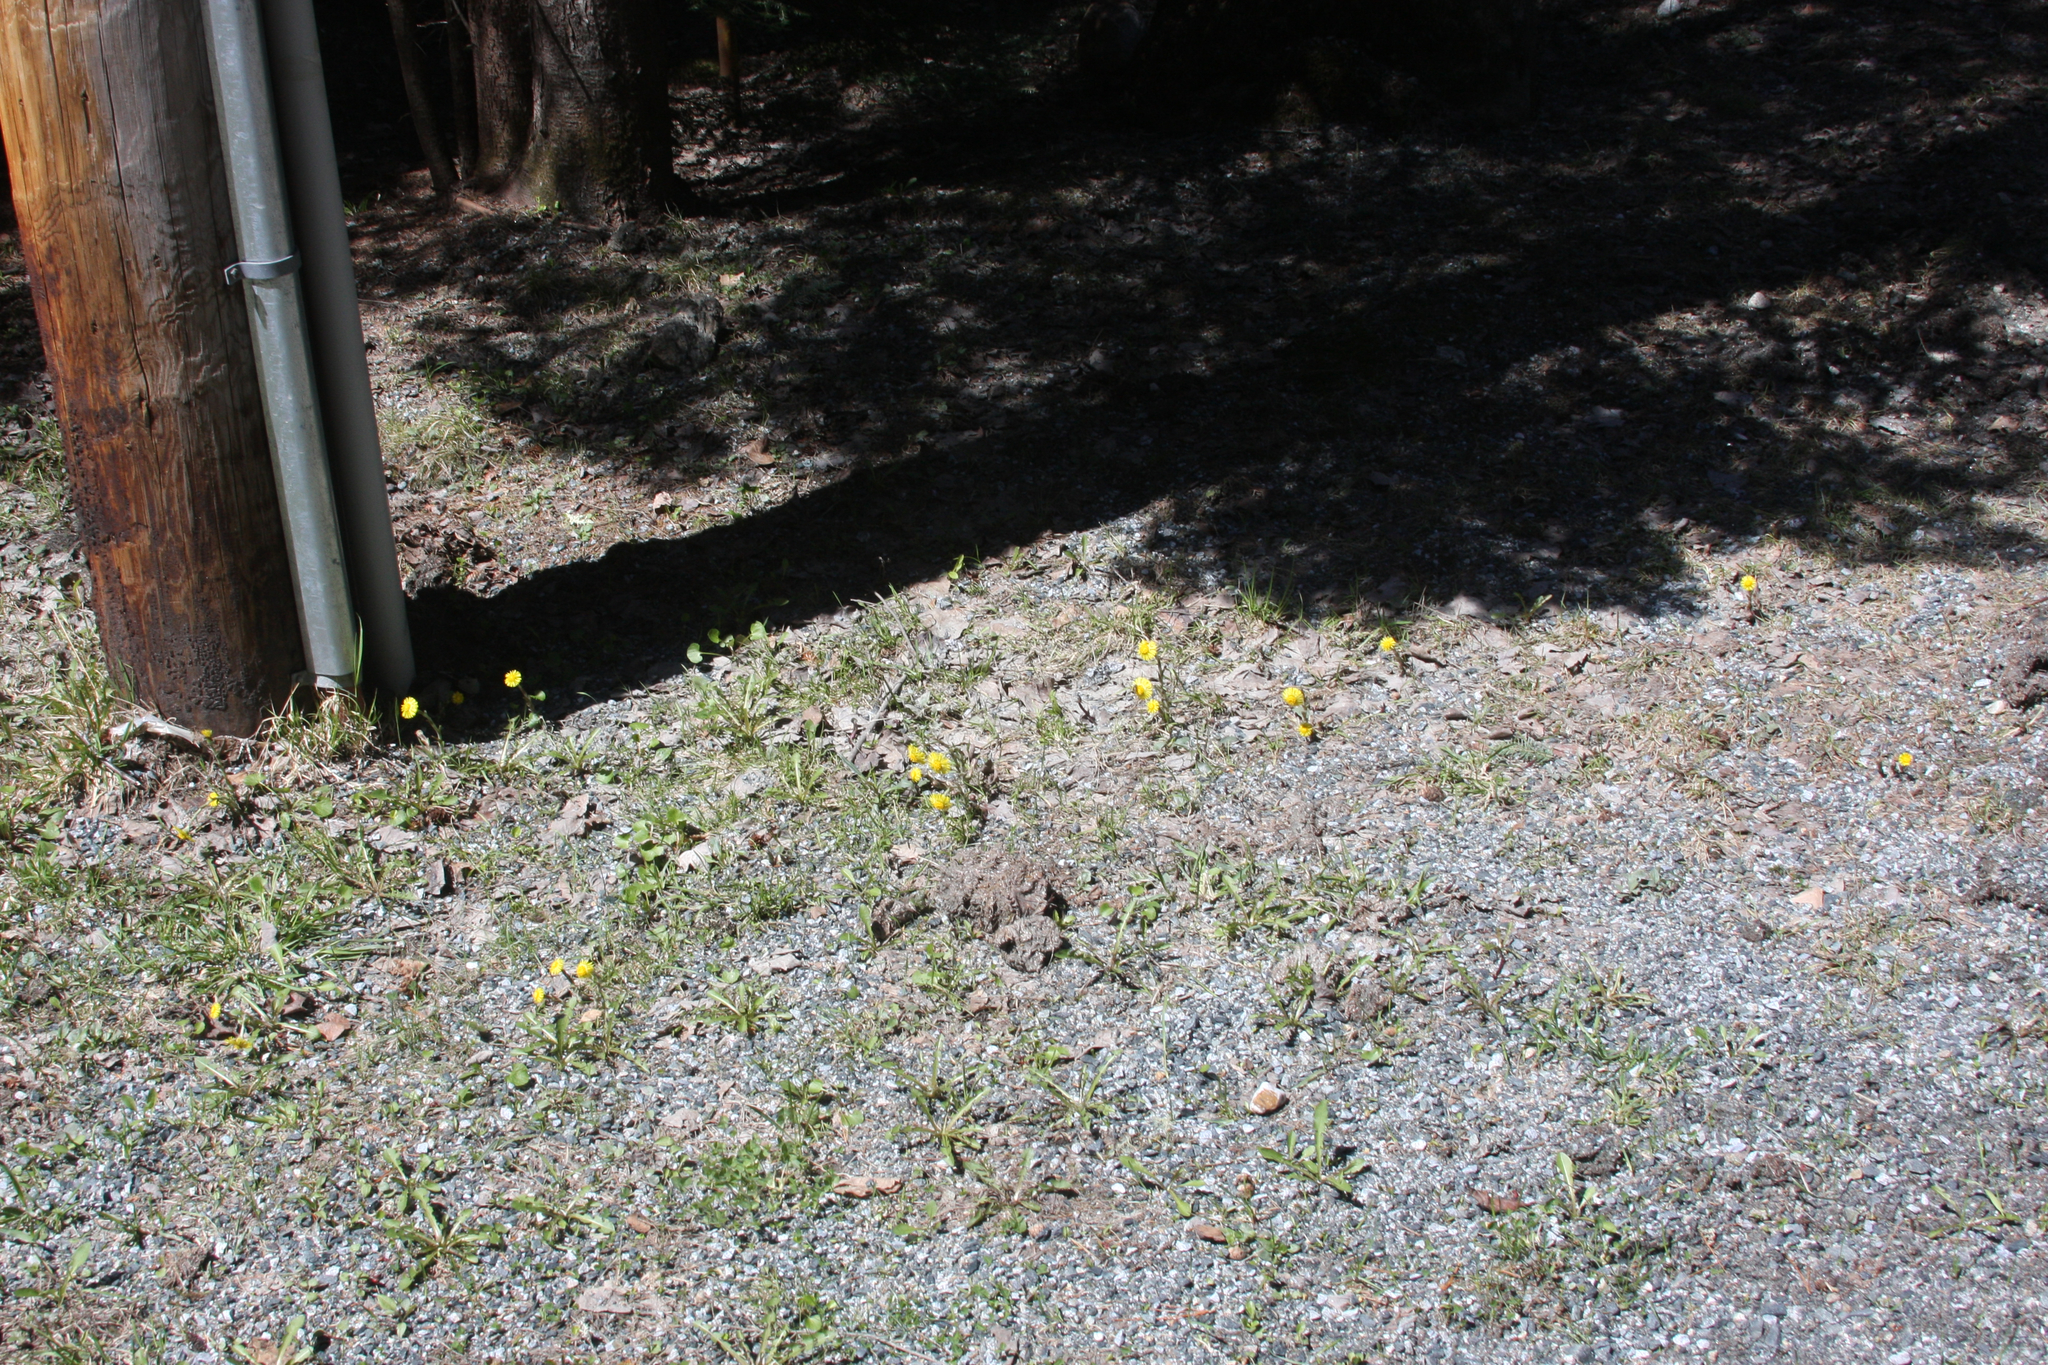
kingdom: Plantae
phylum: Tracheophyta
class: Magnoliopsida
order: Asterales
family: Asteraceae
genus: Tussilago
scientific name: Tussilago farfara
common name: Coltsfoot
